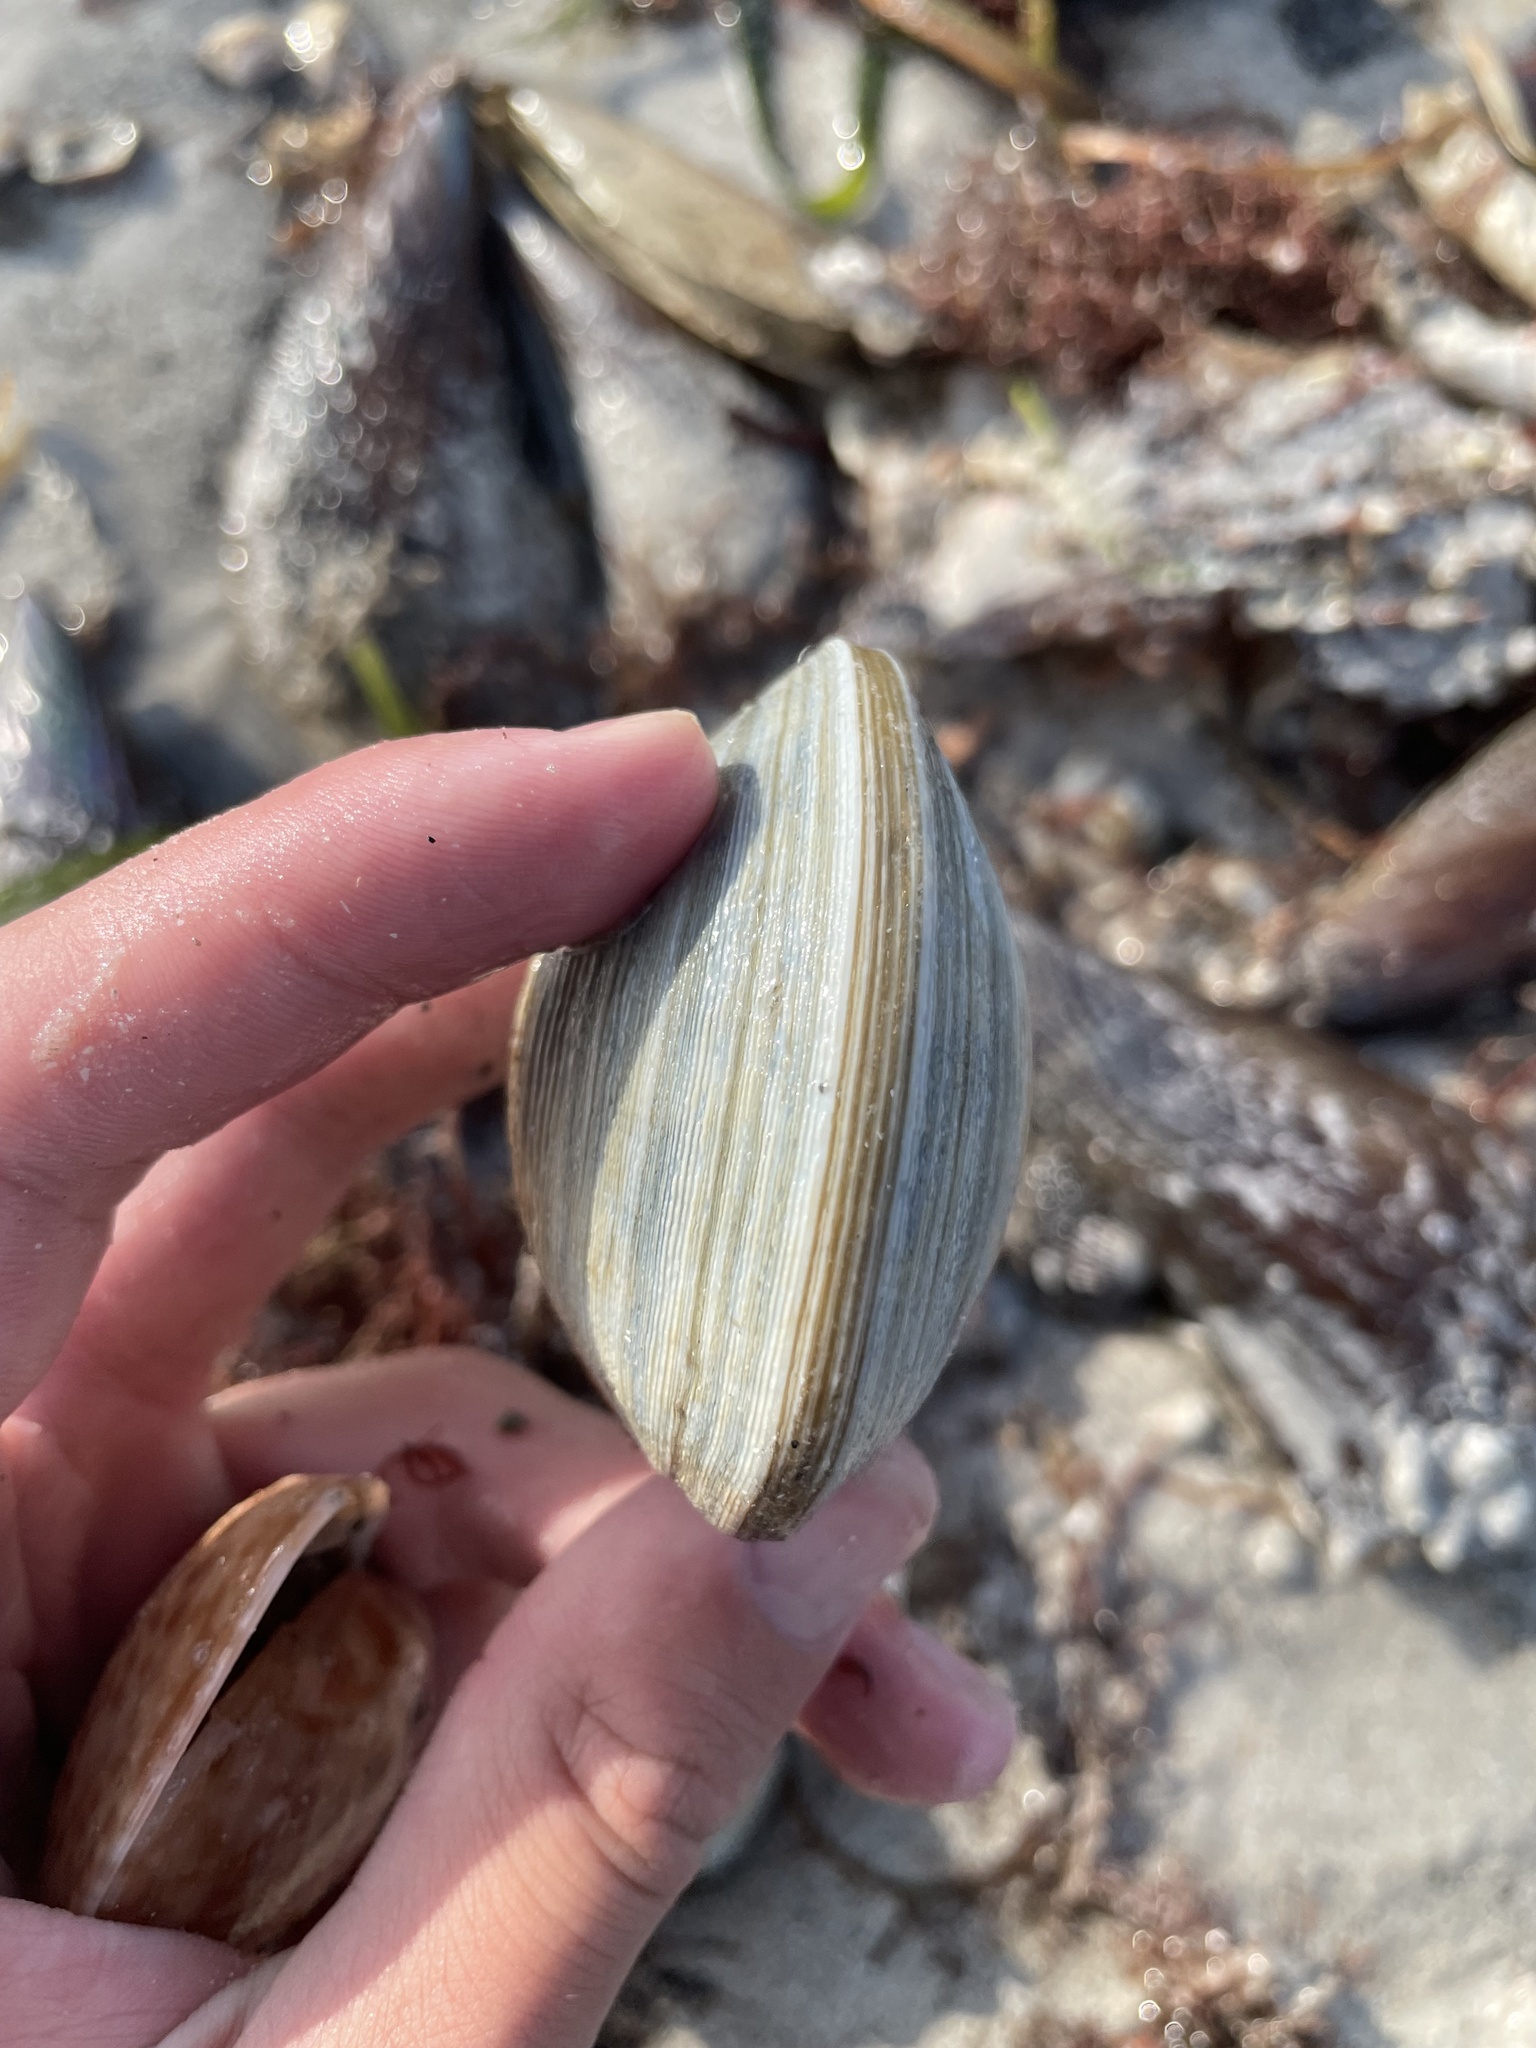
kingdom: Animalia
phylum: Mollusca
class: Bivalvia
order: Venerida
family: Veneridae
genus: Mercenaria
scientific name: Mercenaria campechiensis
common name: Südliche quahog-muschel
